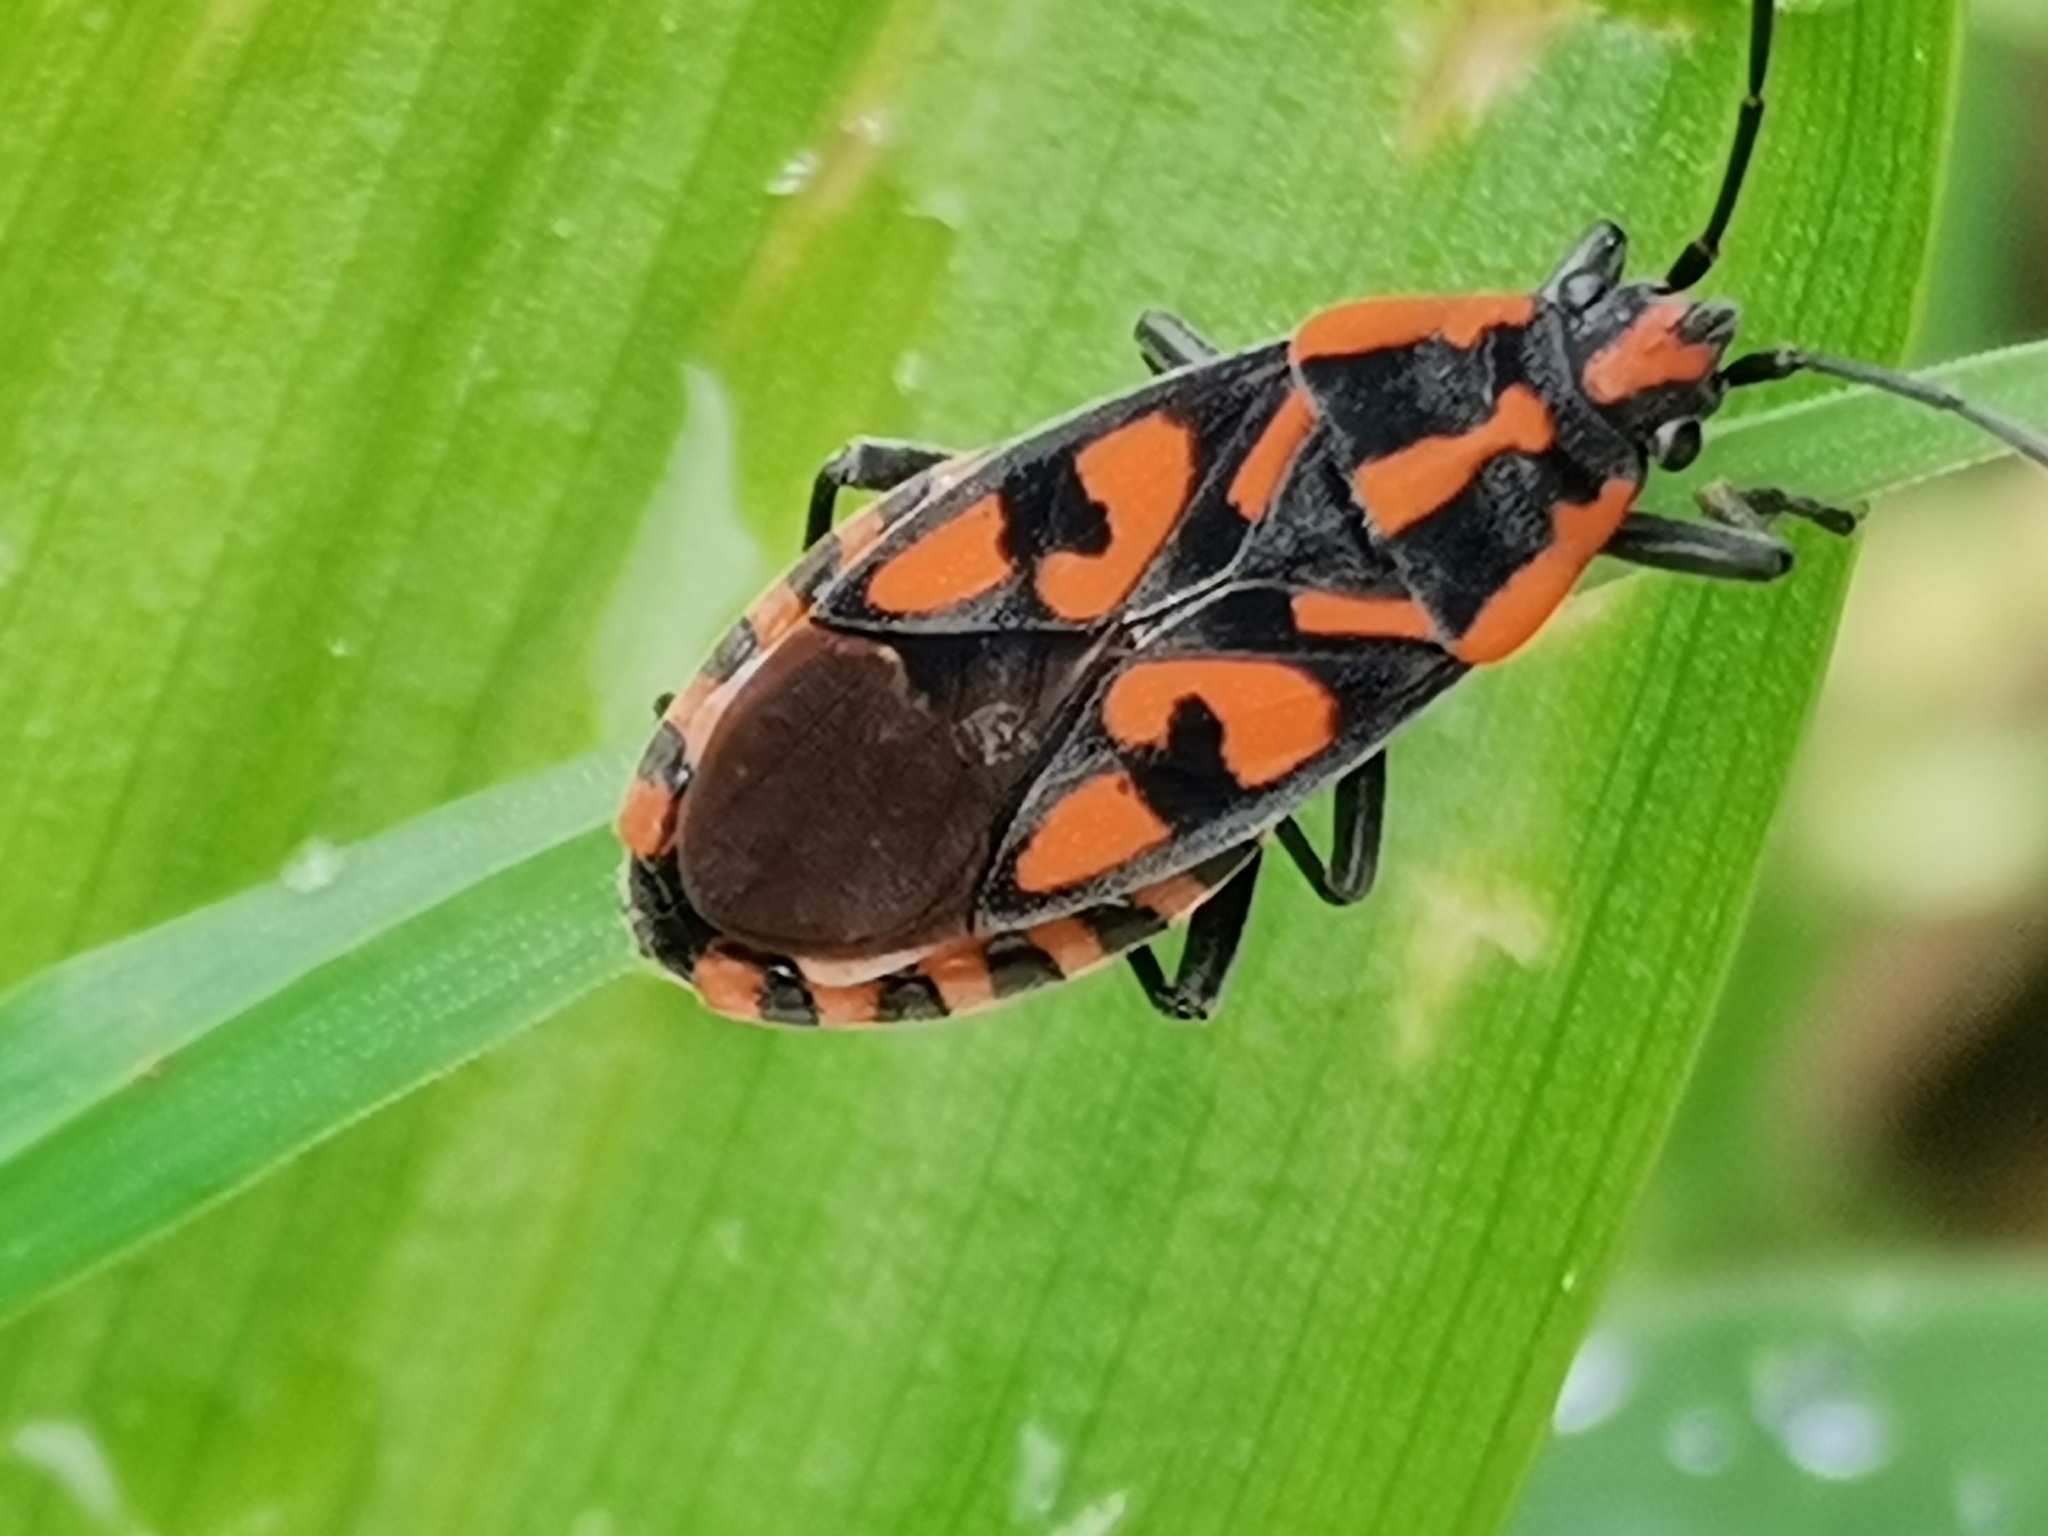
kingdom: Animalia
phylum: Arthropoda
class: Insecta
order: Hemiptera
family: Lygaeidae
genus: Spilostethus
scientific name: Spilostethus saxatilis
